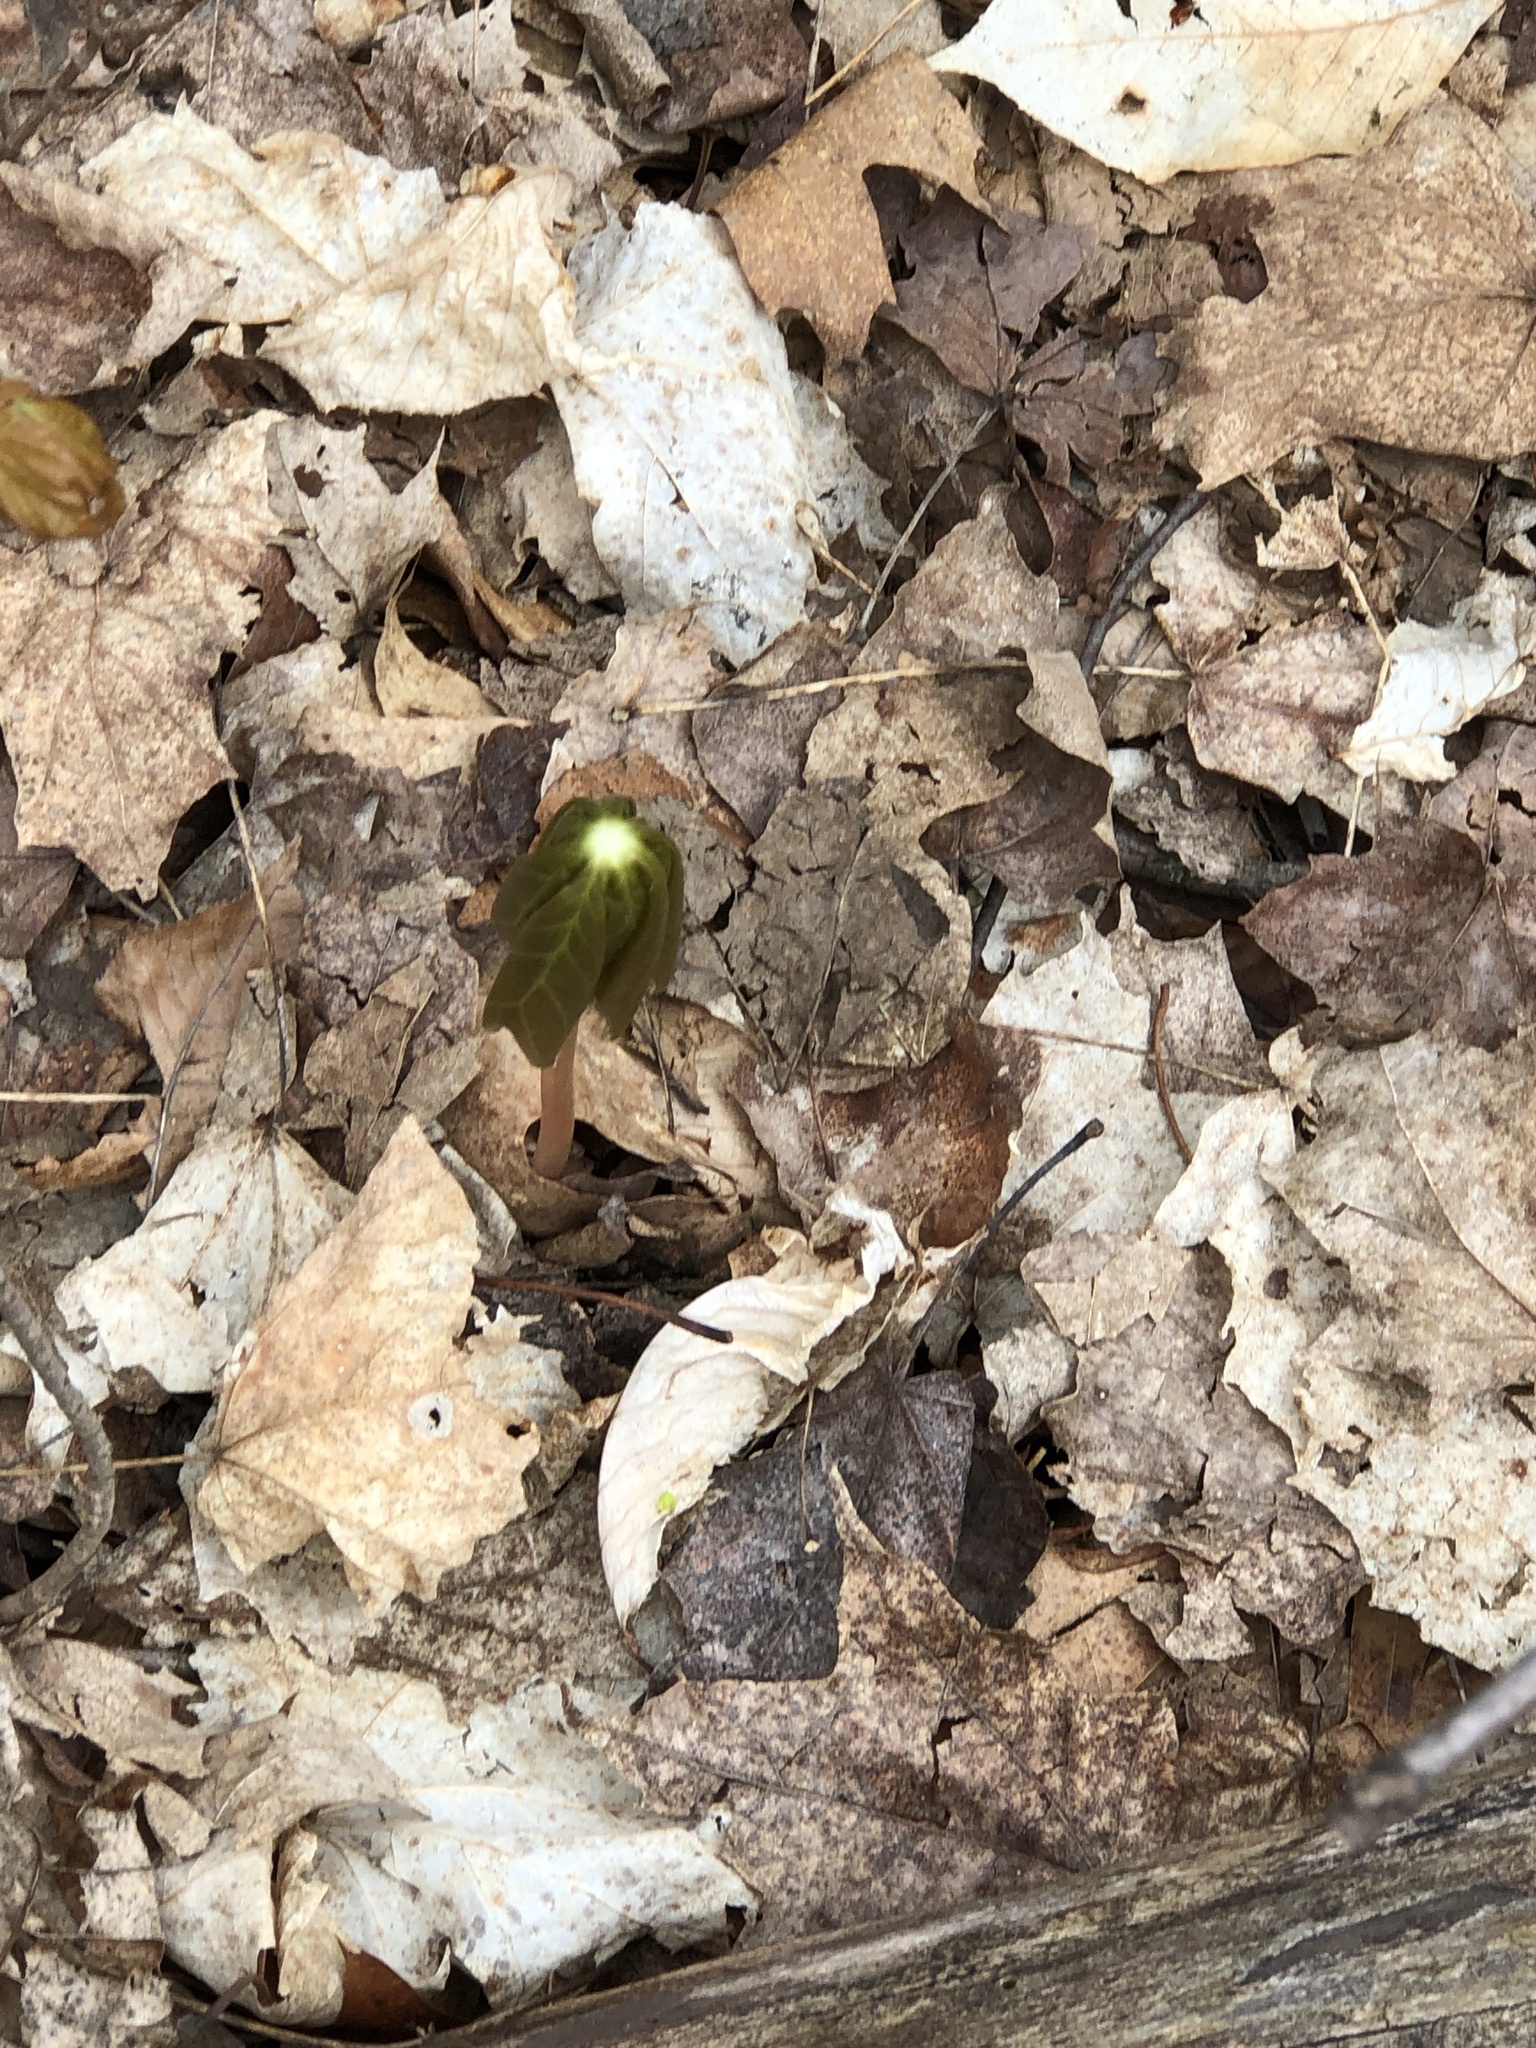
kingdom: Plantae
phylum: Tracheophyta
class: Magnoliopsida
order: Ranunculales
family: Berberidaceae
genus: Podophyllum
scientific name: Podophyllum peltatum
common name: Wild mandrake
